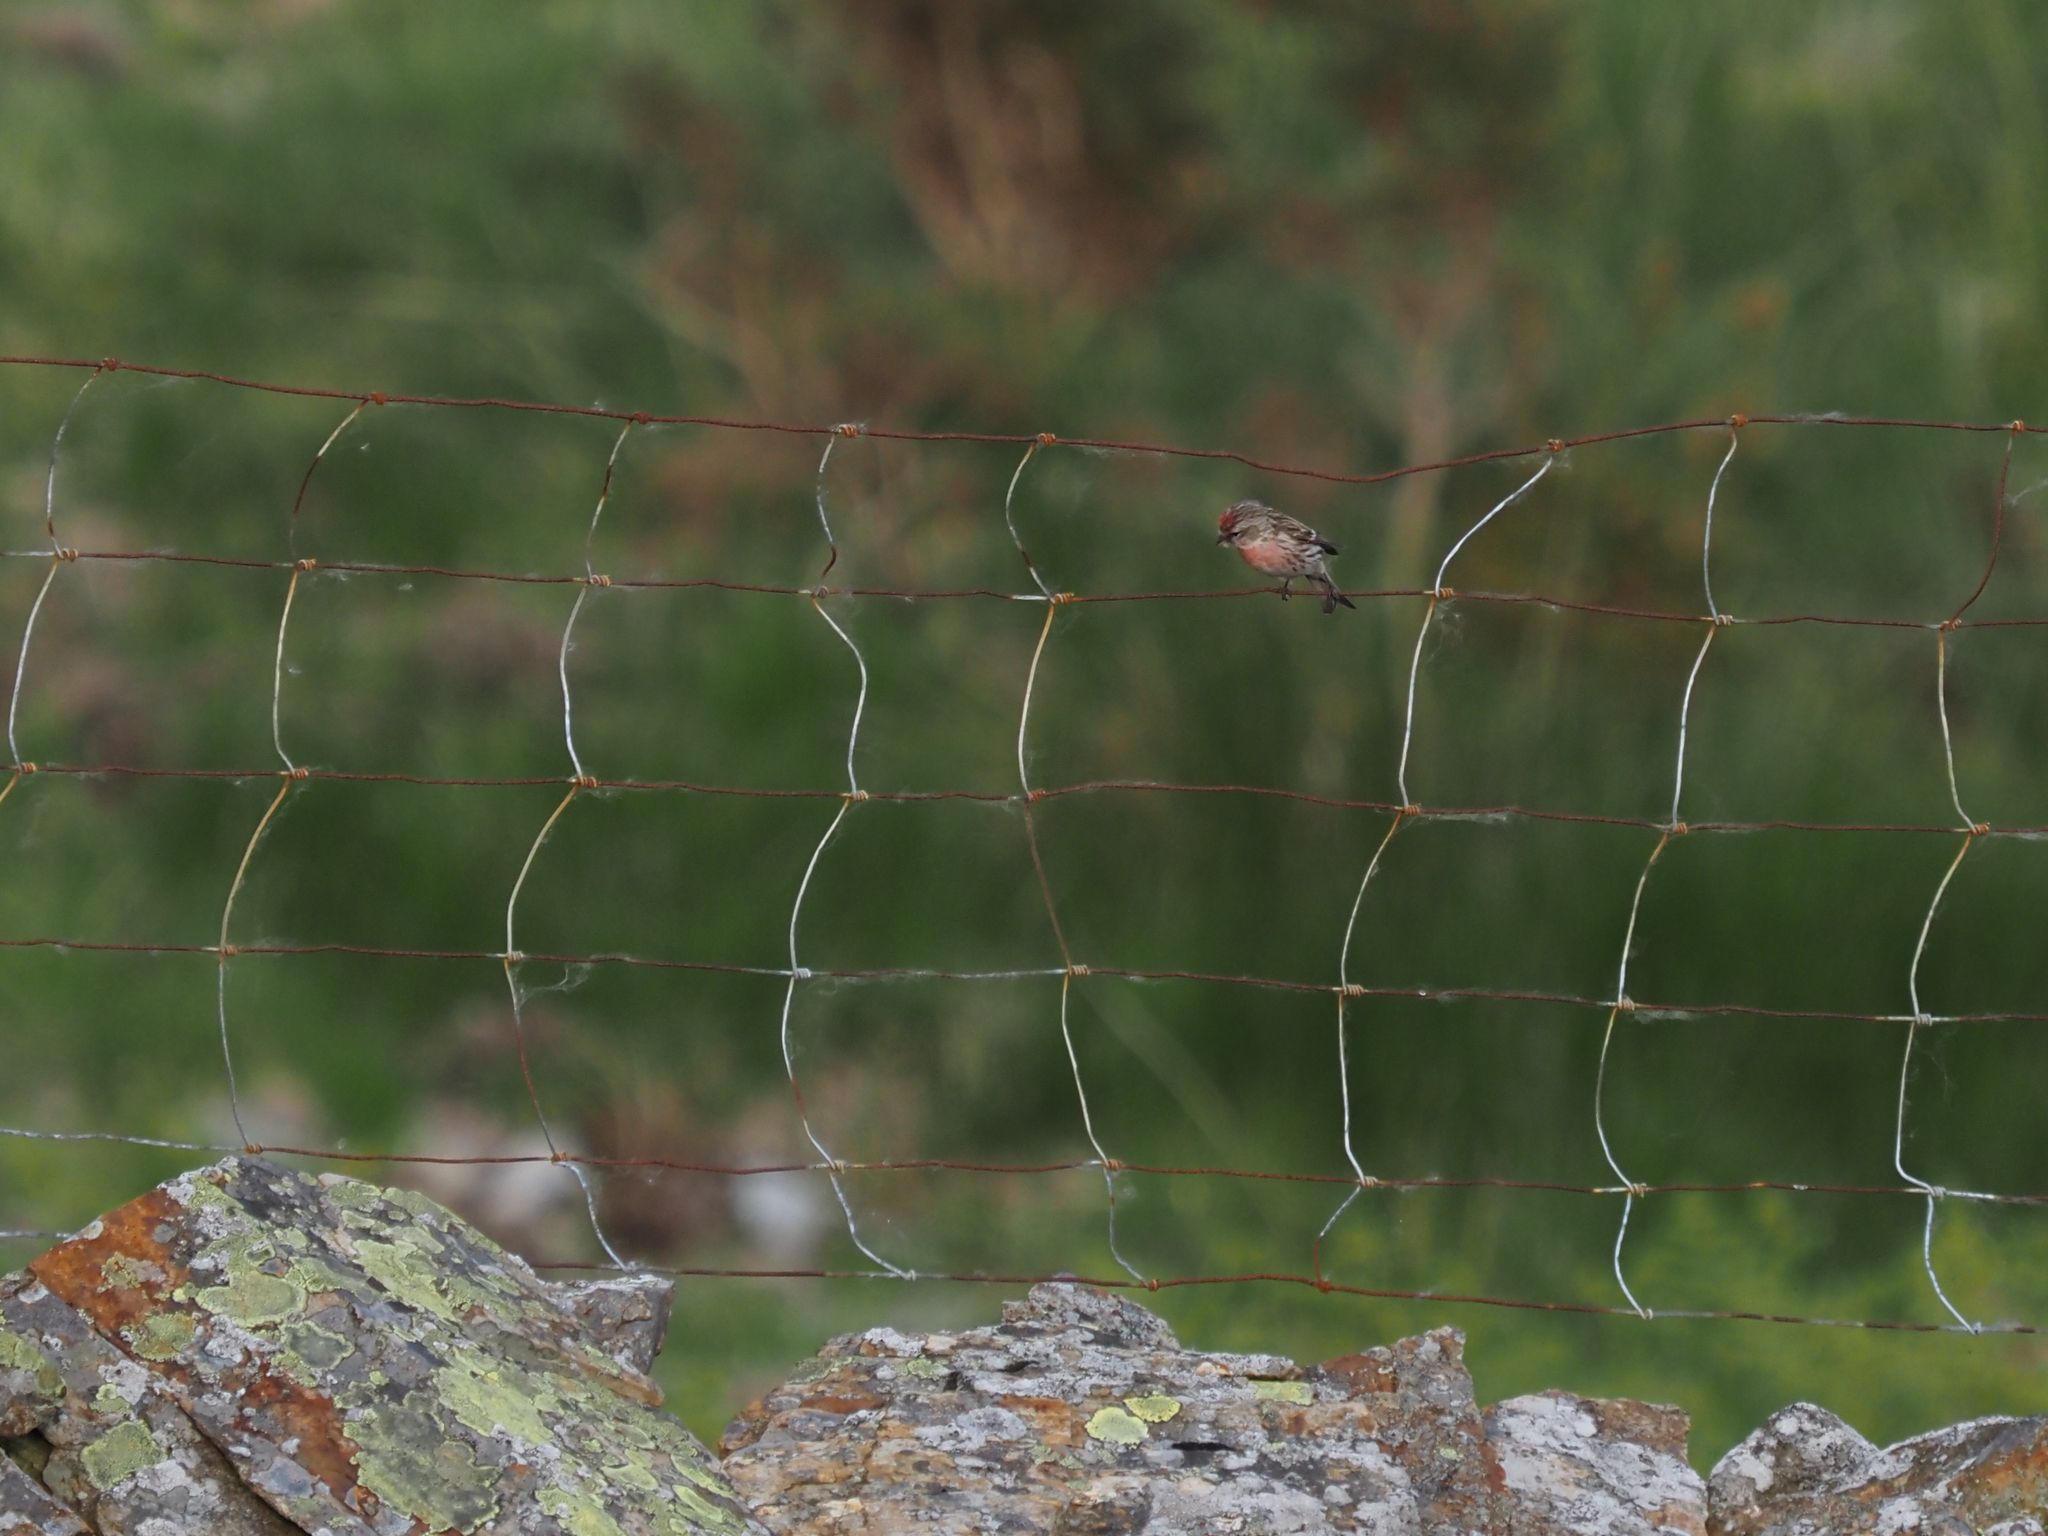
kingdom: Animalia
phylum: Chordata
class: Aves
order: Passeriformes
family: Fringillidae
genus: Acanthis
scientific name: Acanthis flammea
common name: Common redpoll
